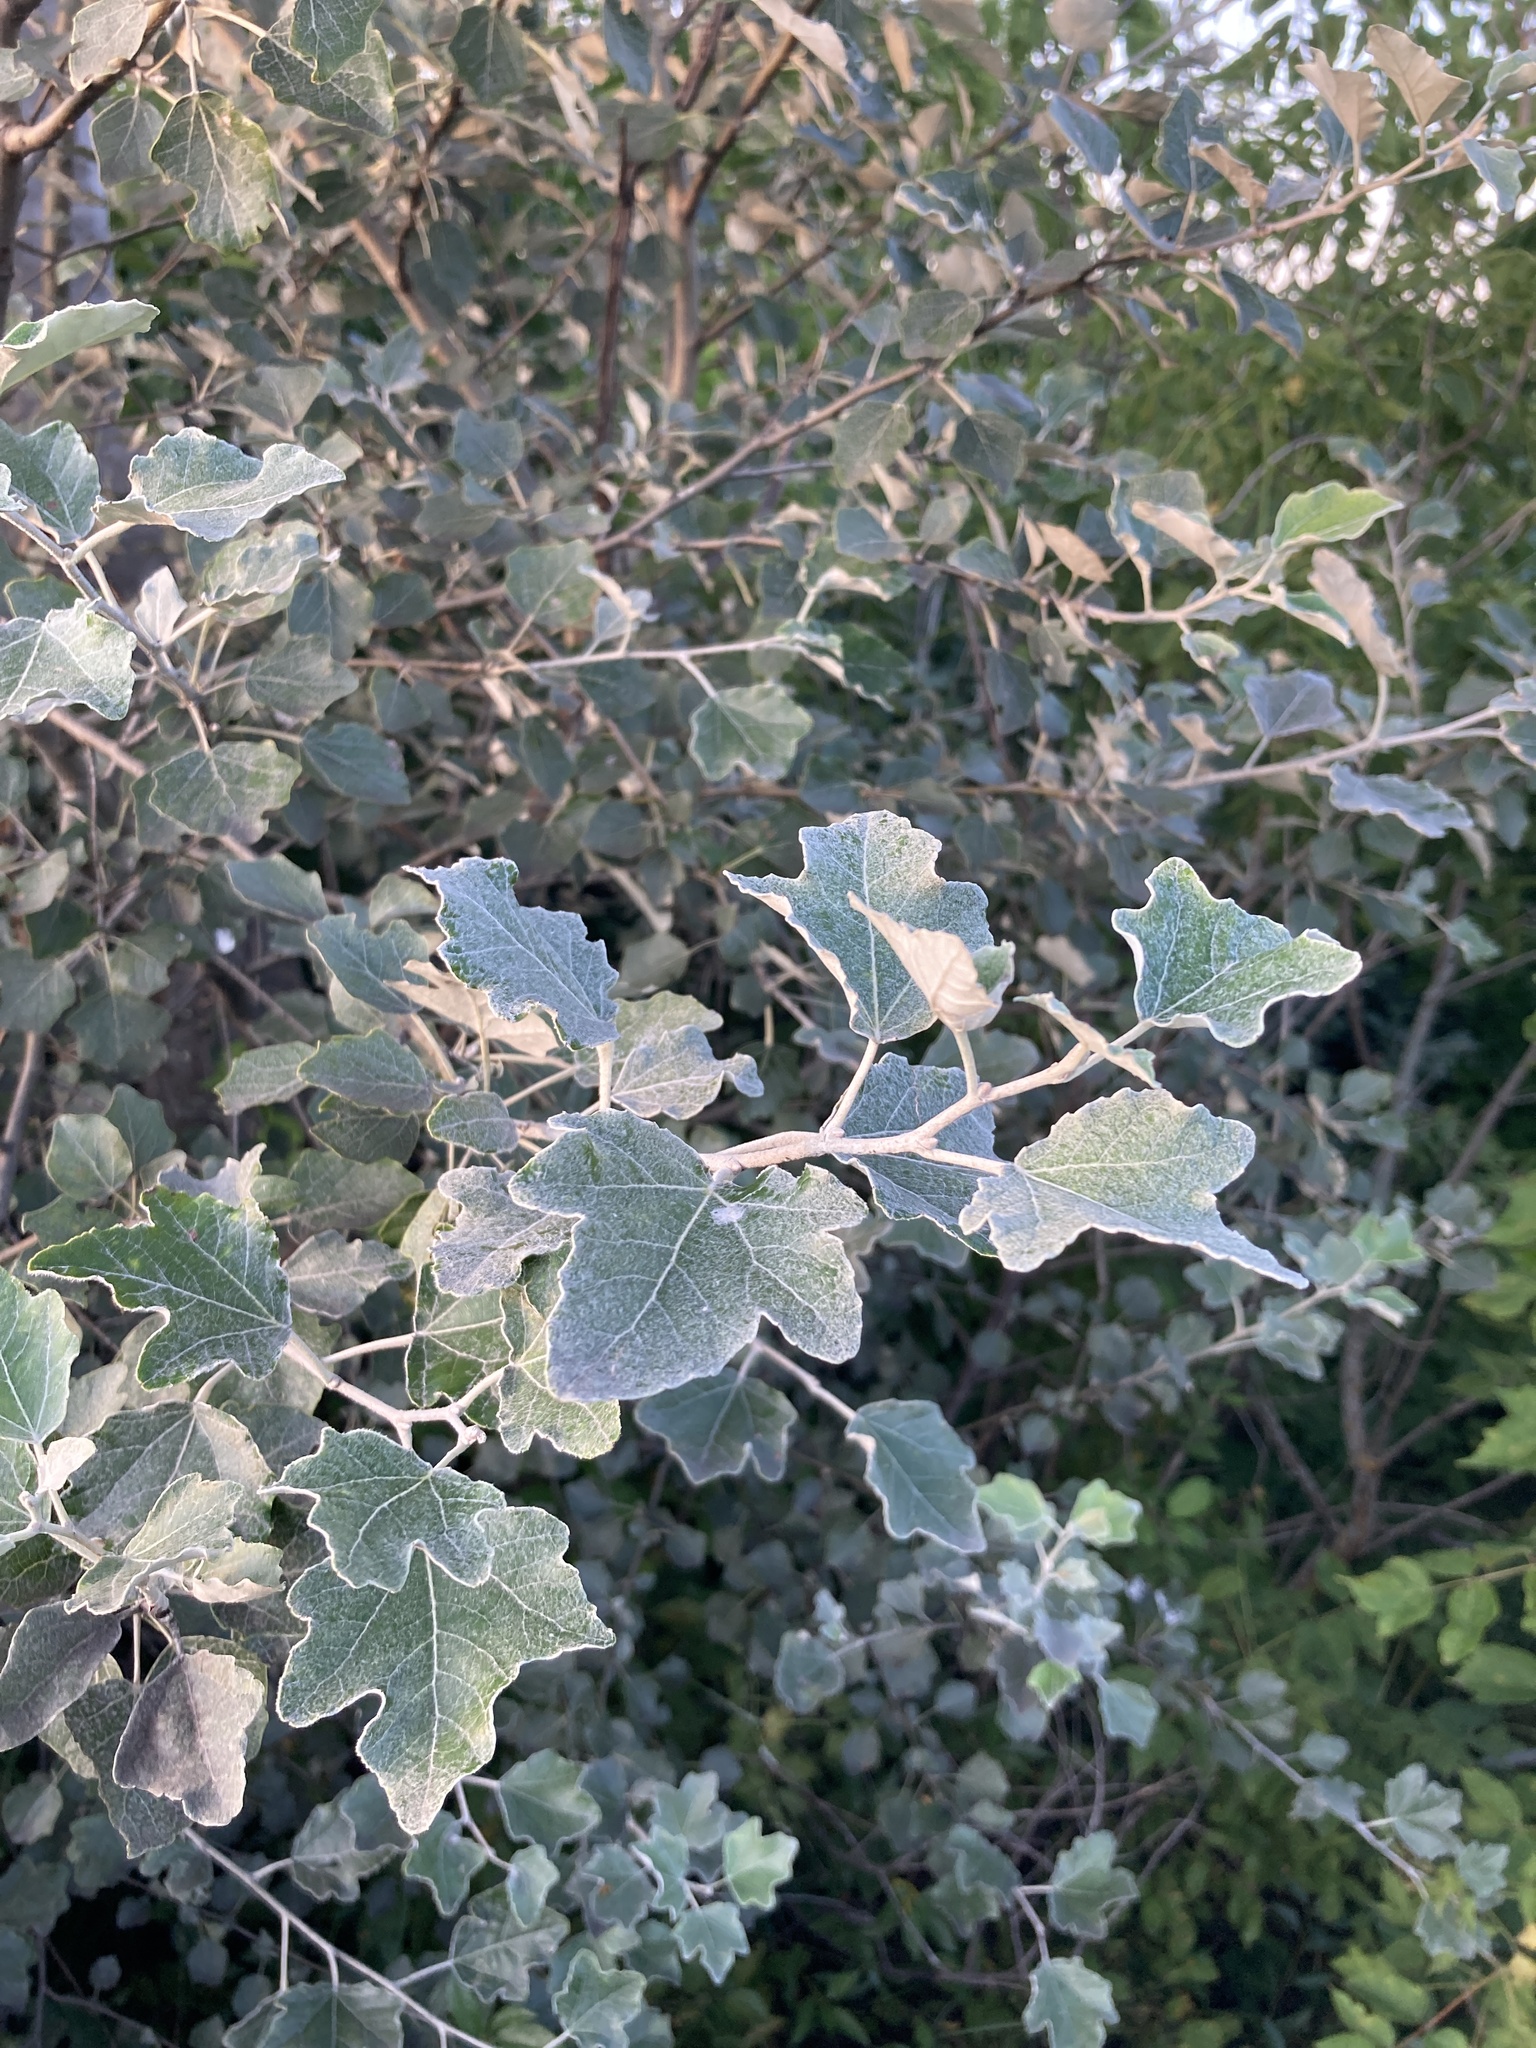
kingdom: Plantae
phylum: Tracheophyta
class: Magnoliopsida
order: Malpighiales
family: Salicaceae
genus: Populus
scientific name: Populus alba
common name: White poplar
